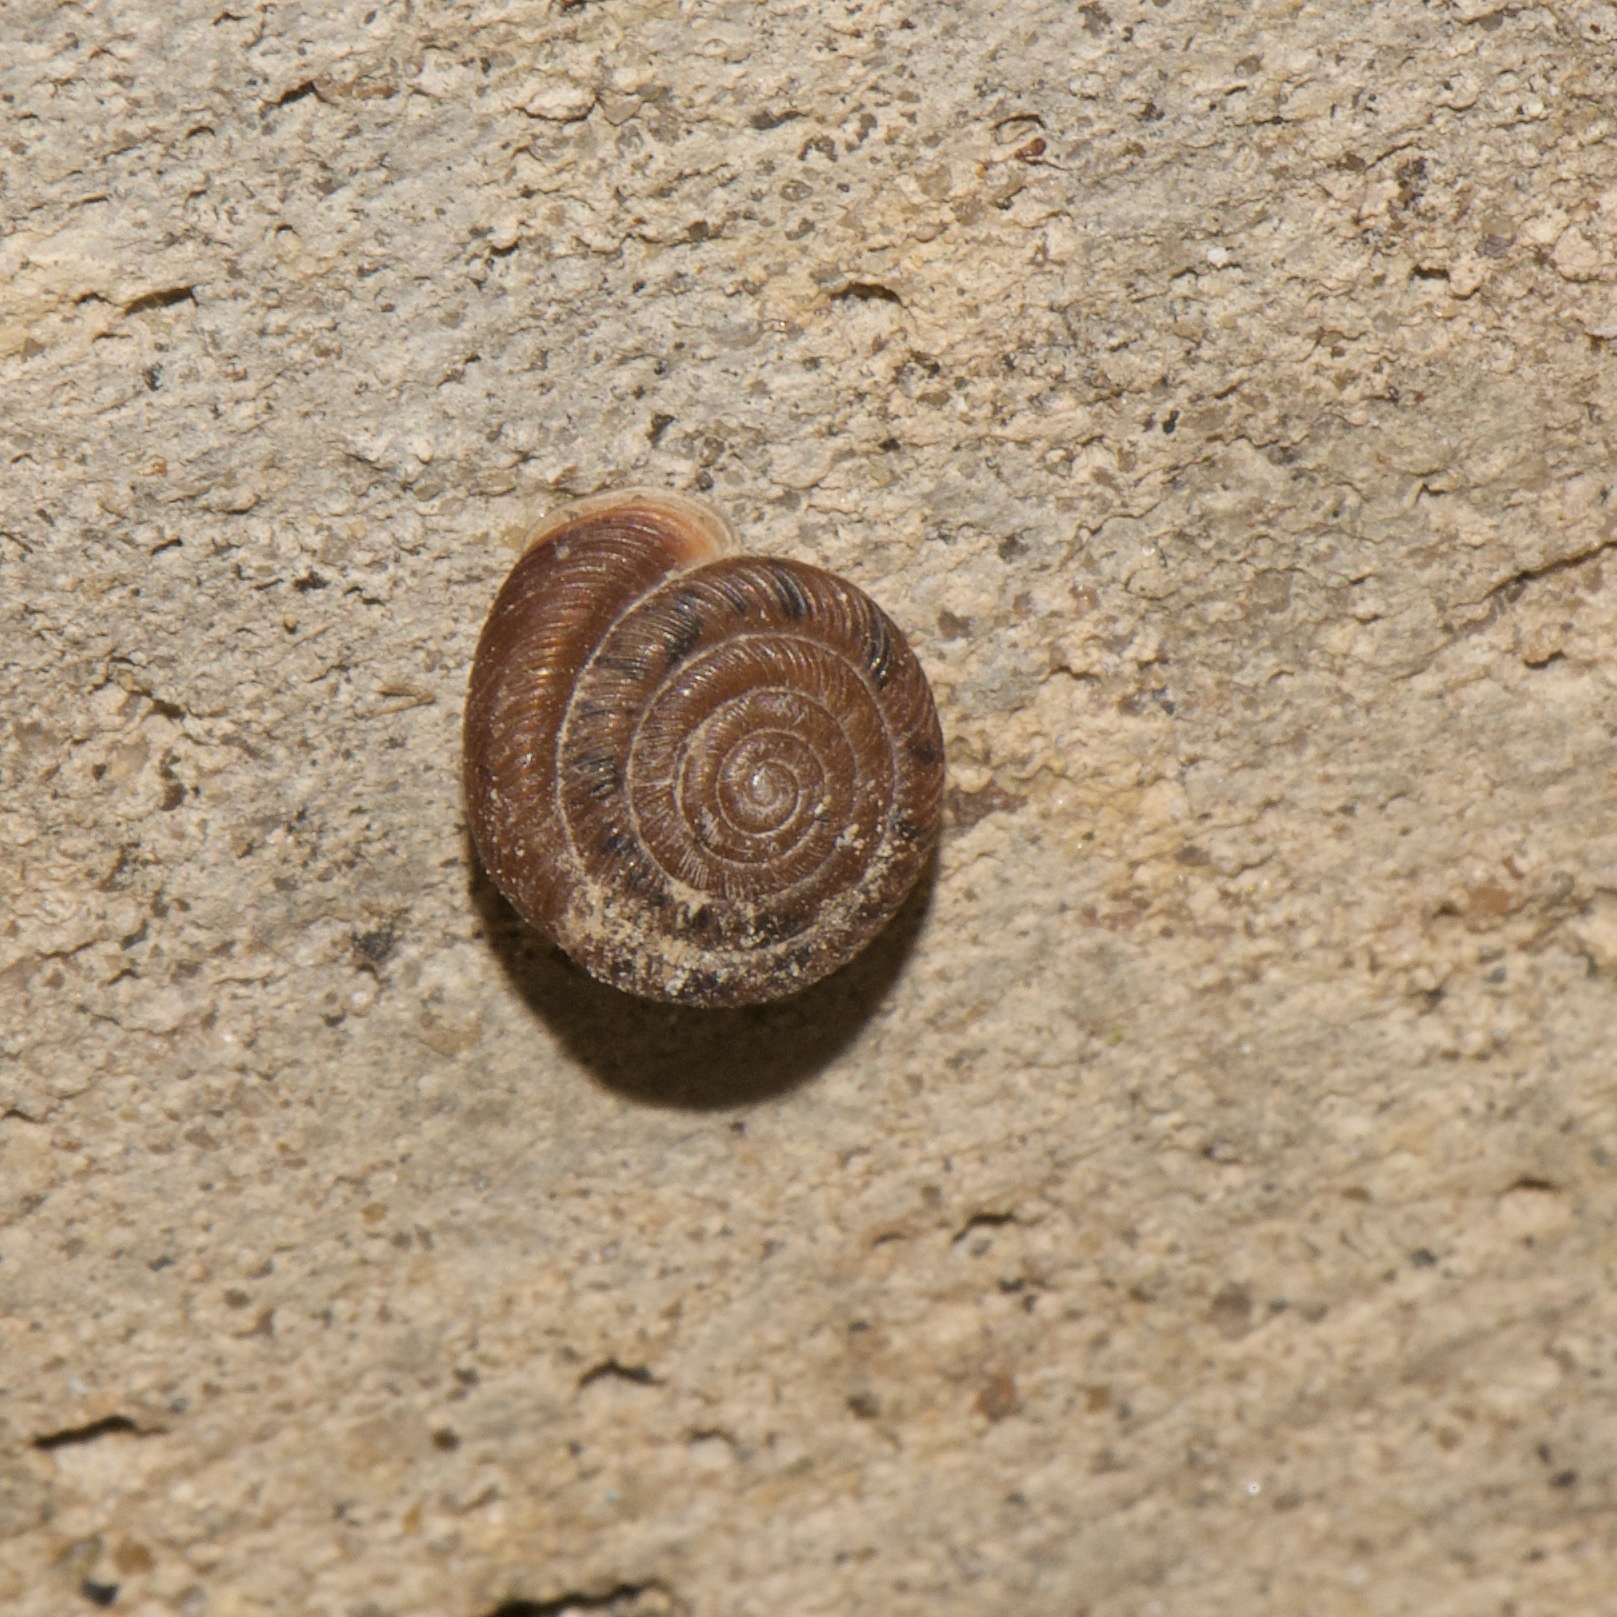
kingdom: Animalia
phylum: Mollusca
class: Gastropoda
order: Stylommatophora
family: Polygyridae
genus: Polygyra
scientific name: Polygyra cereolus
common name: Southern flatcone snail
